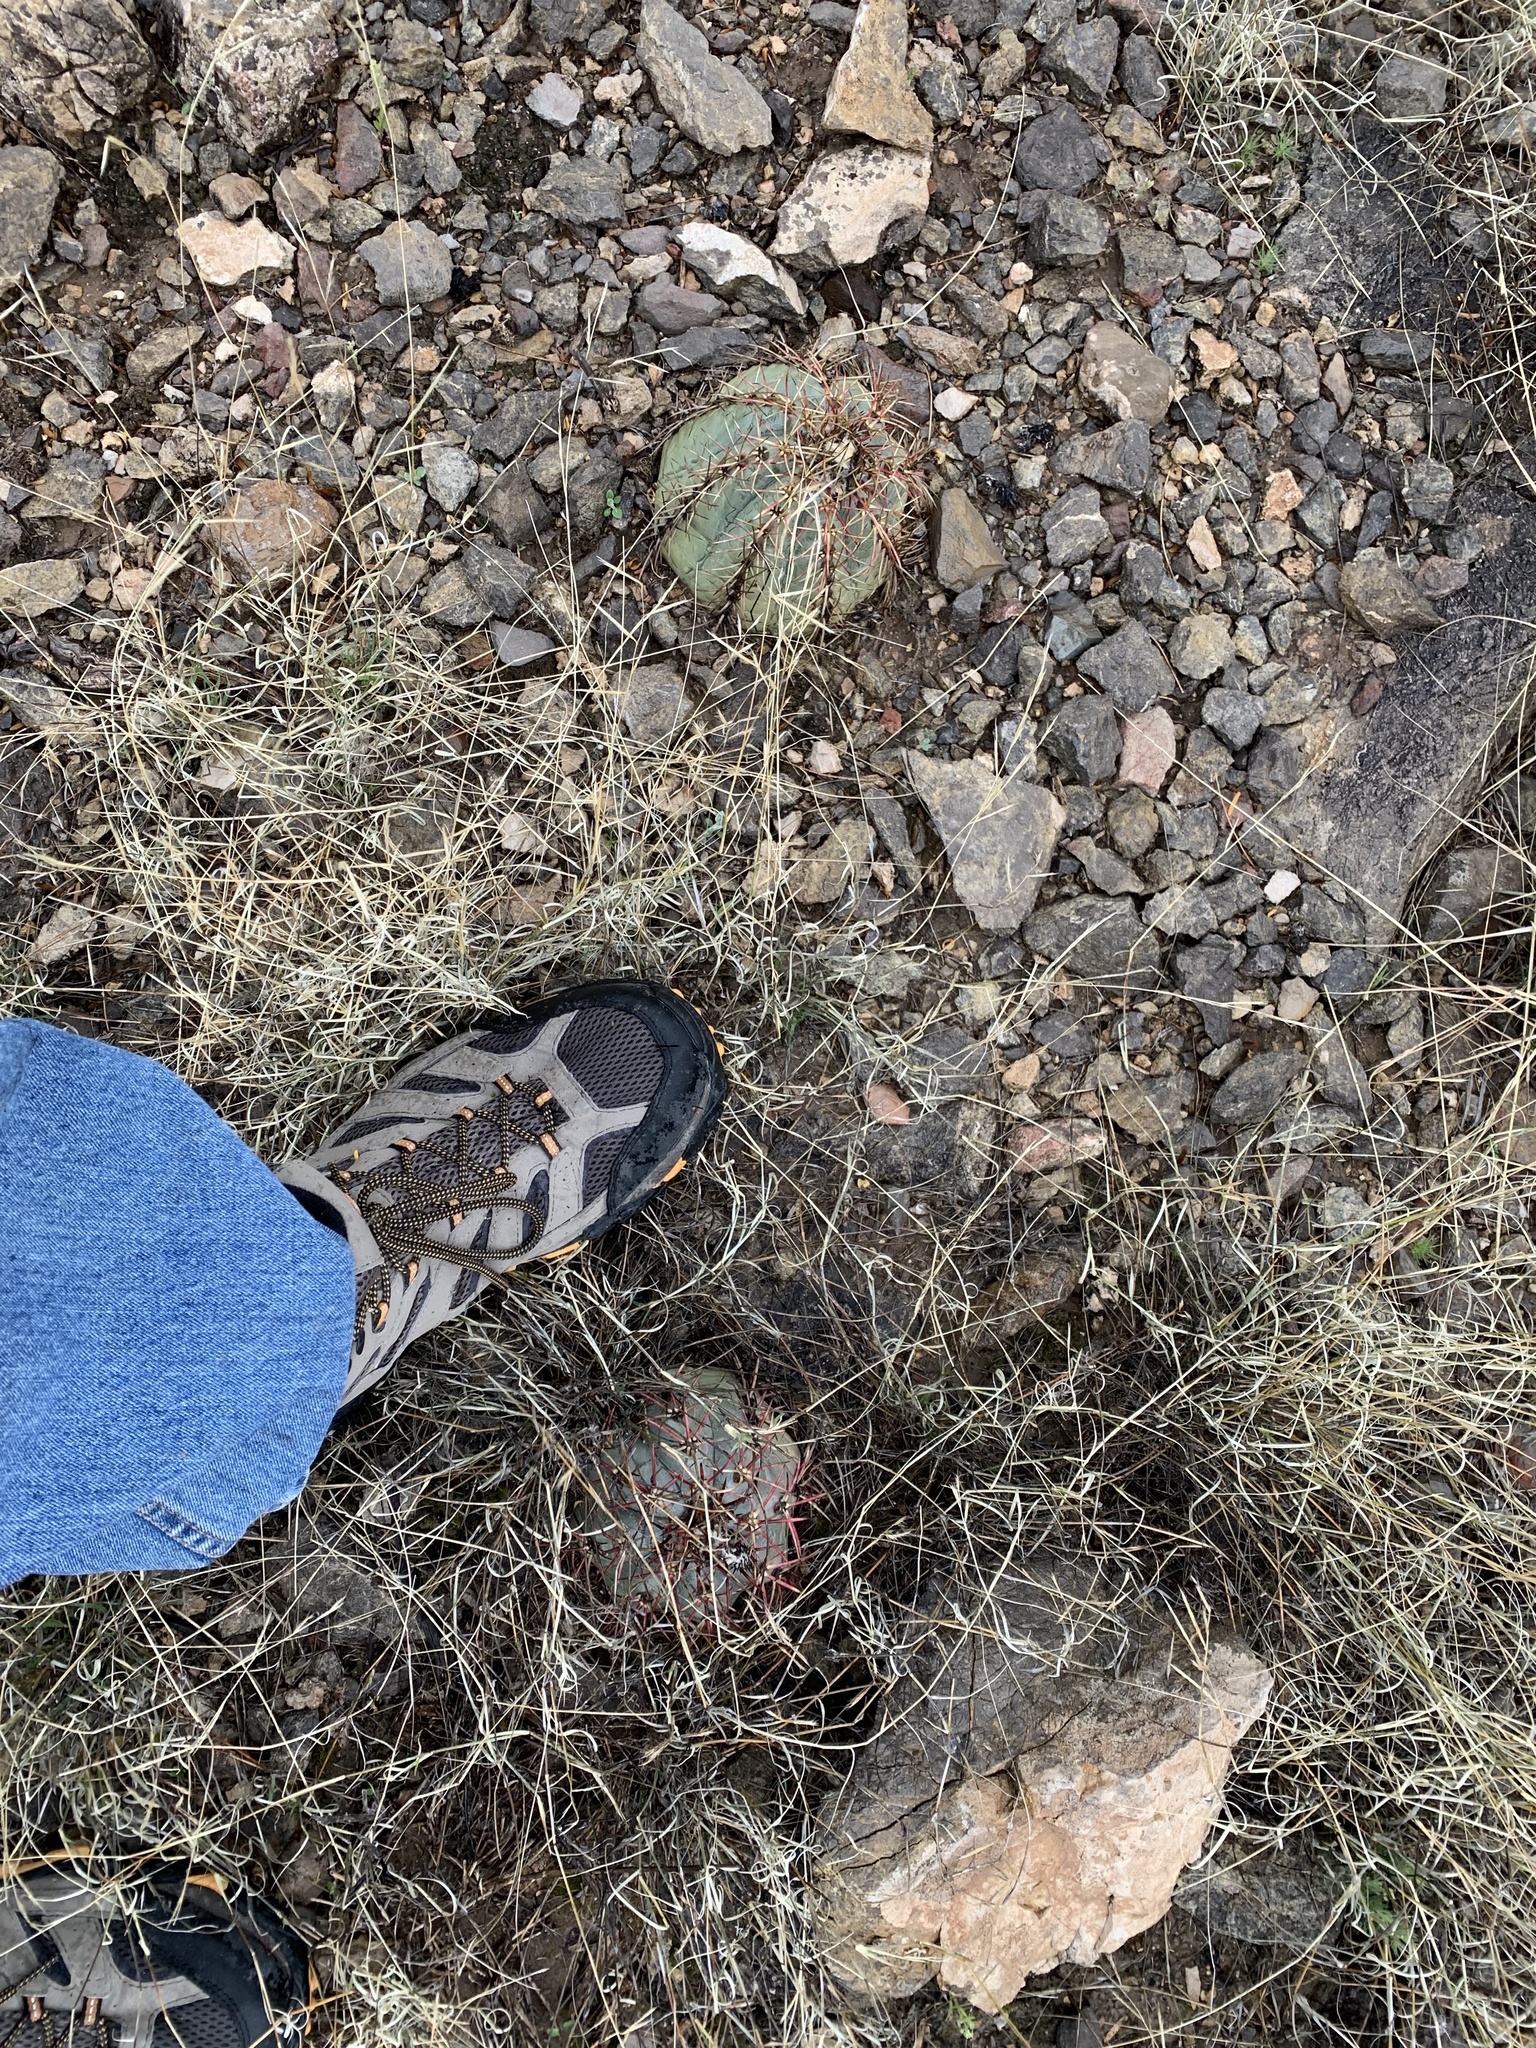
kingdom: Plantae
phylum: Tracheophyta
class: Magnoliopsida
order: Caryophyllales
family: Cactaceae
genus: Echinocactus
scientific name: Echinocactus horizonthalonius
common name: Devilshead
